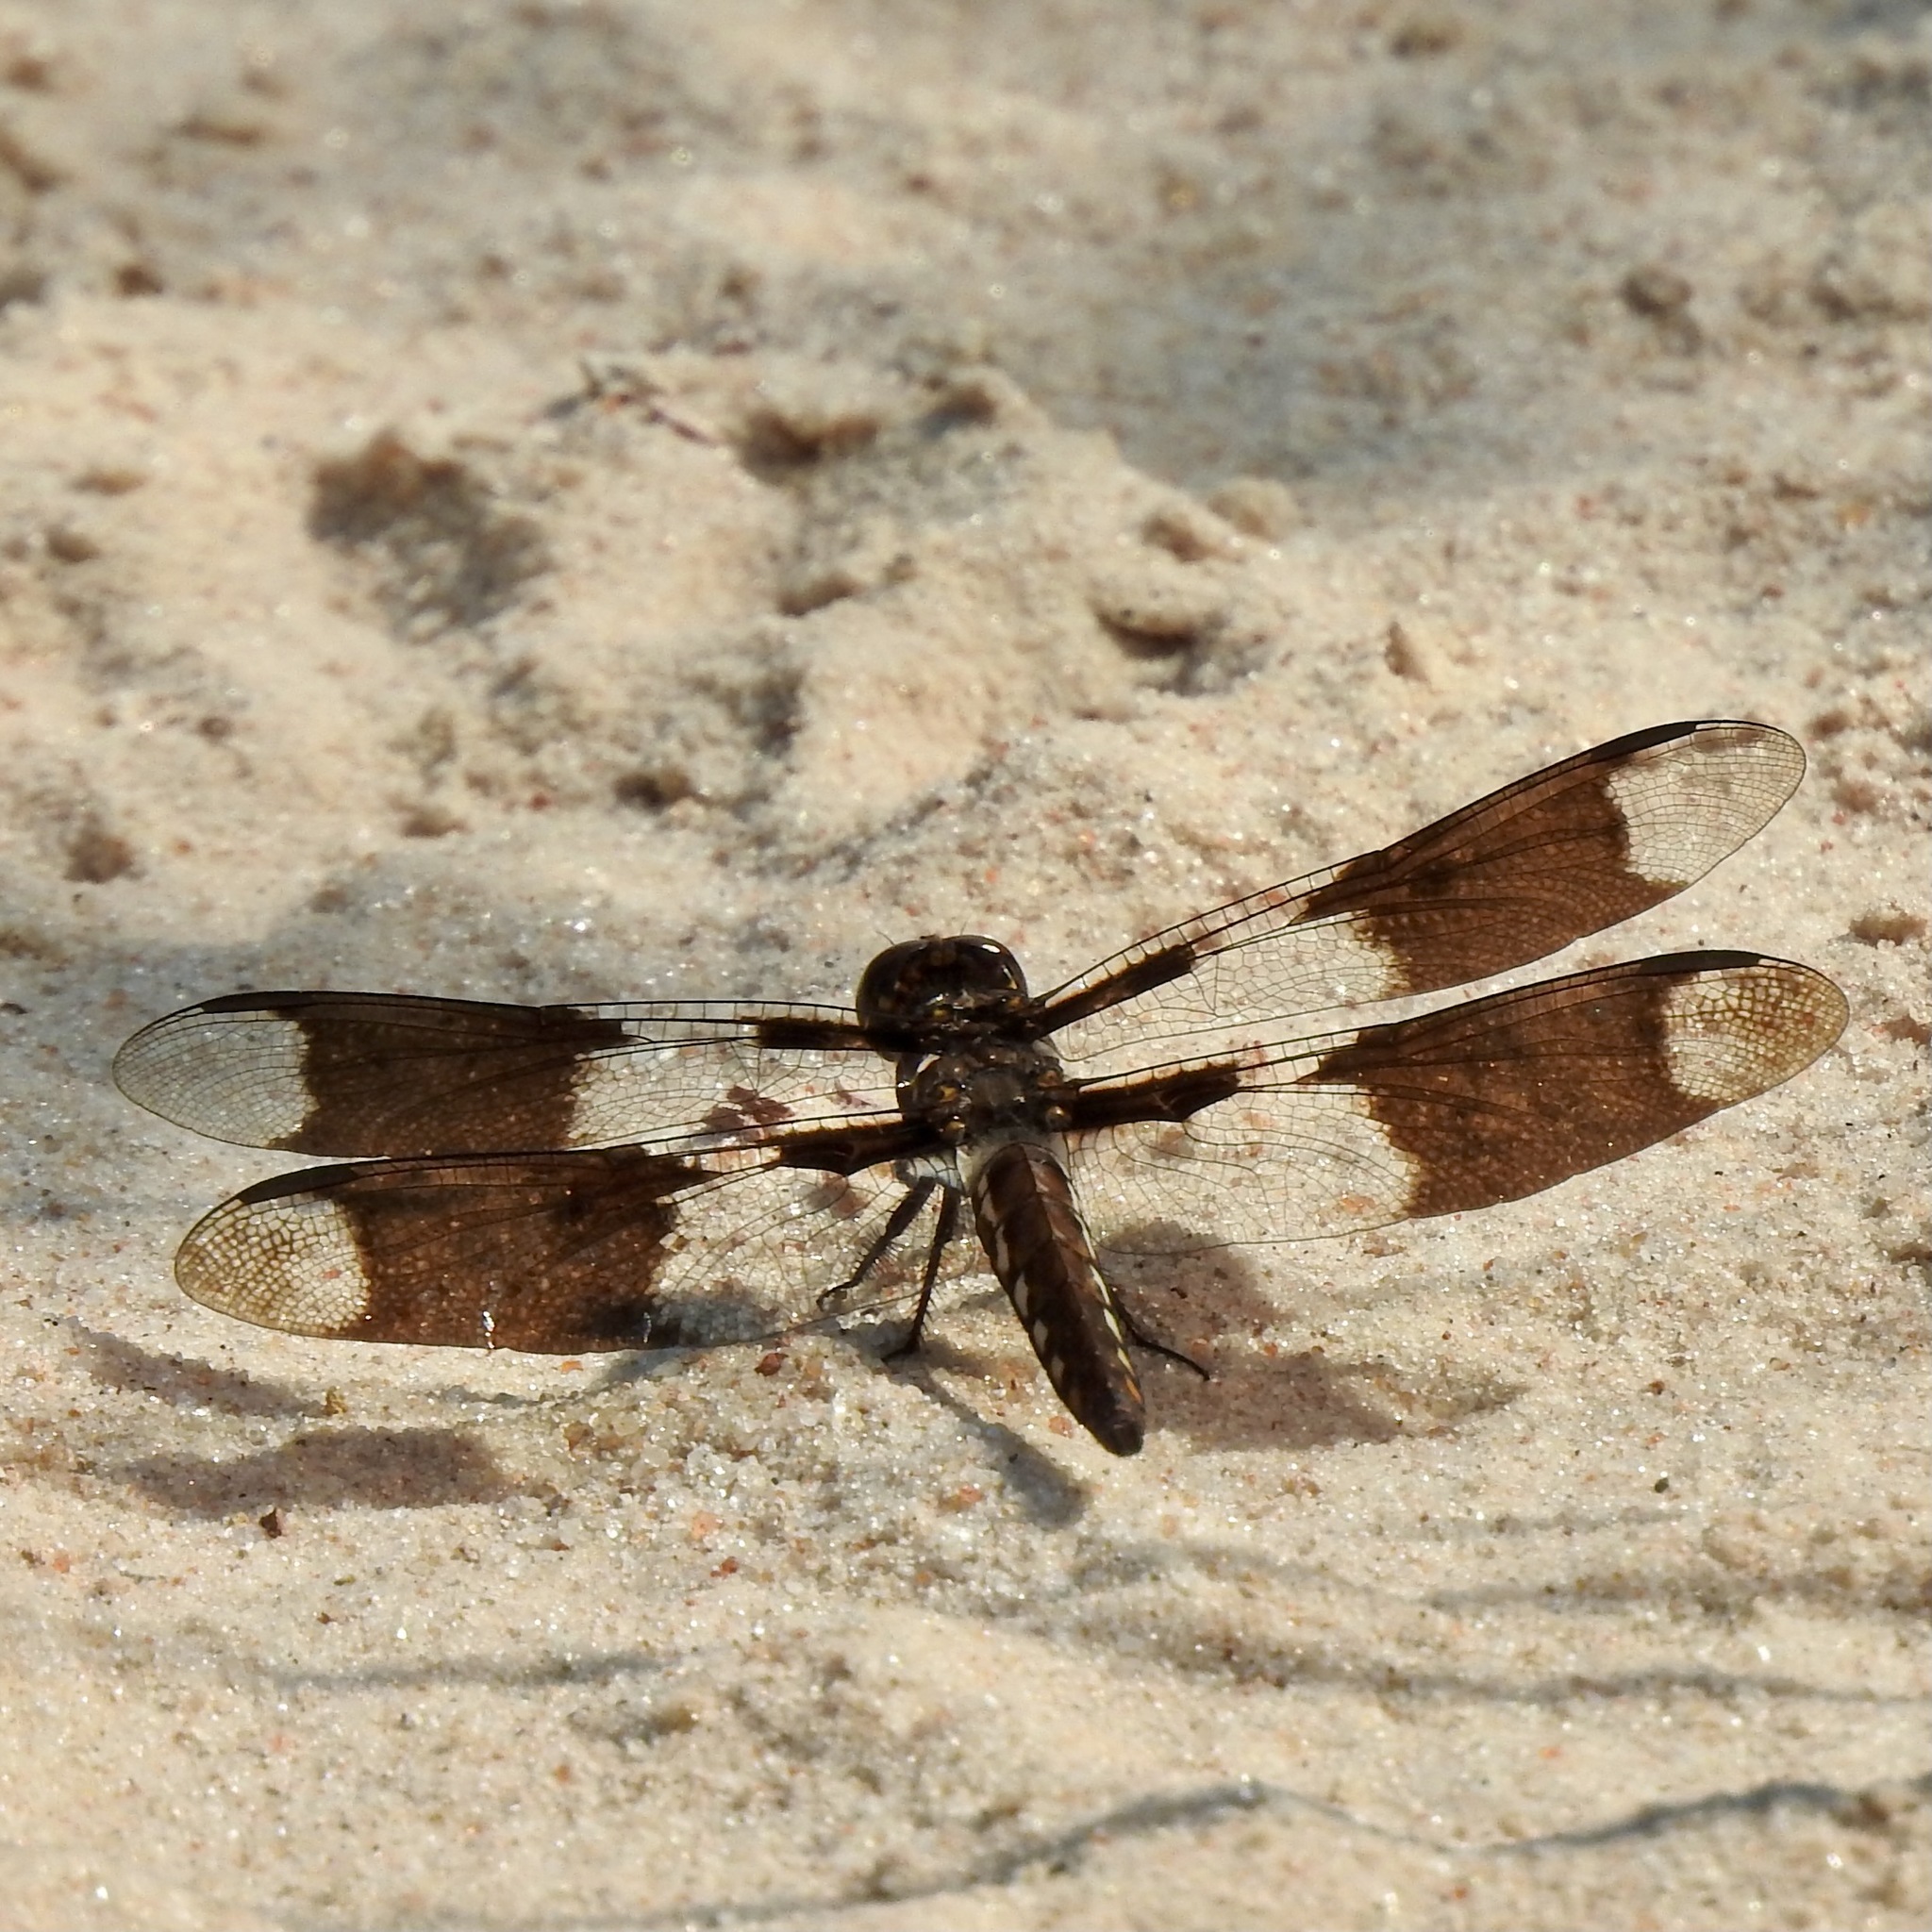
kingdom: Animalia
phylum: Arthropoda
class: Insecta
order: Odonata
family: Libellulidae
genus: Plathemis
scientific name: Plathemis lydia
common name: Common whitetail
